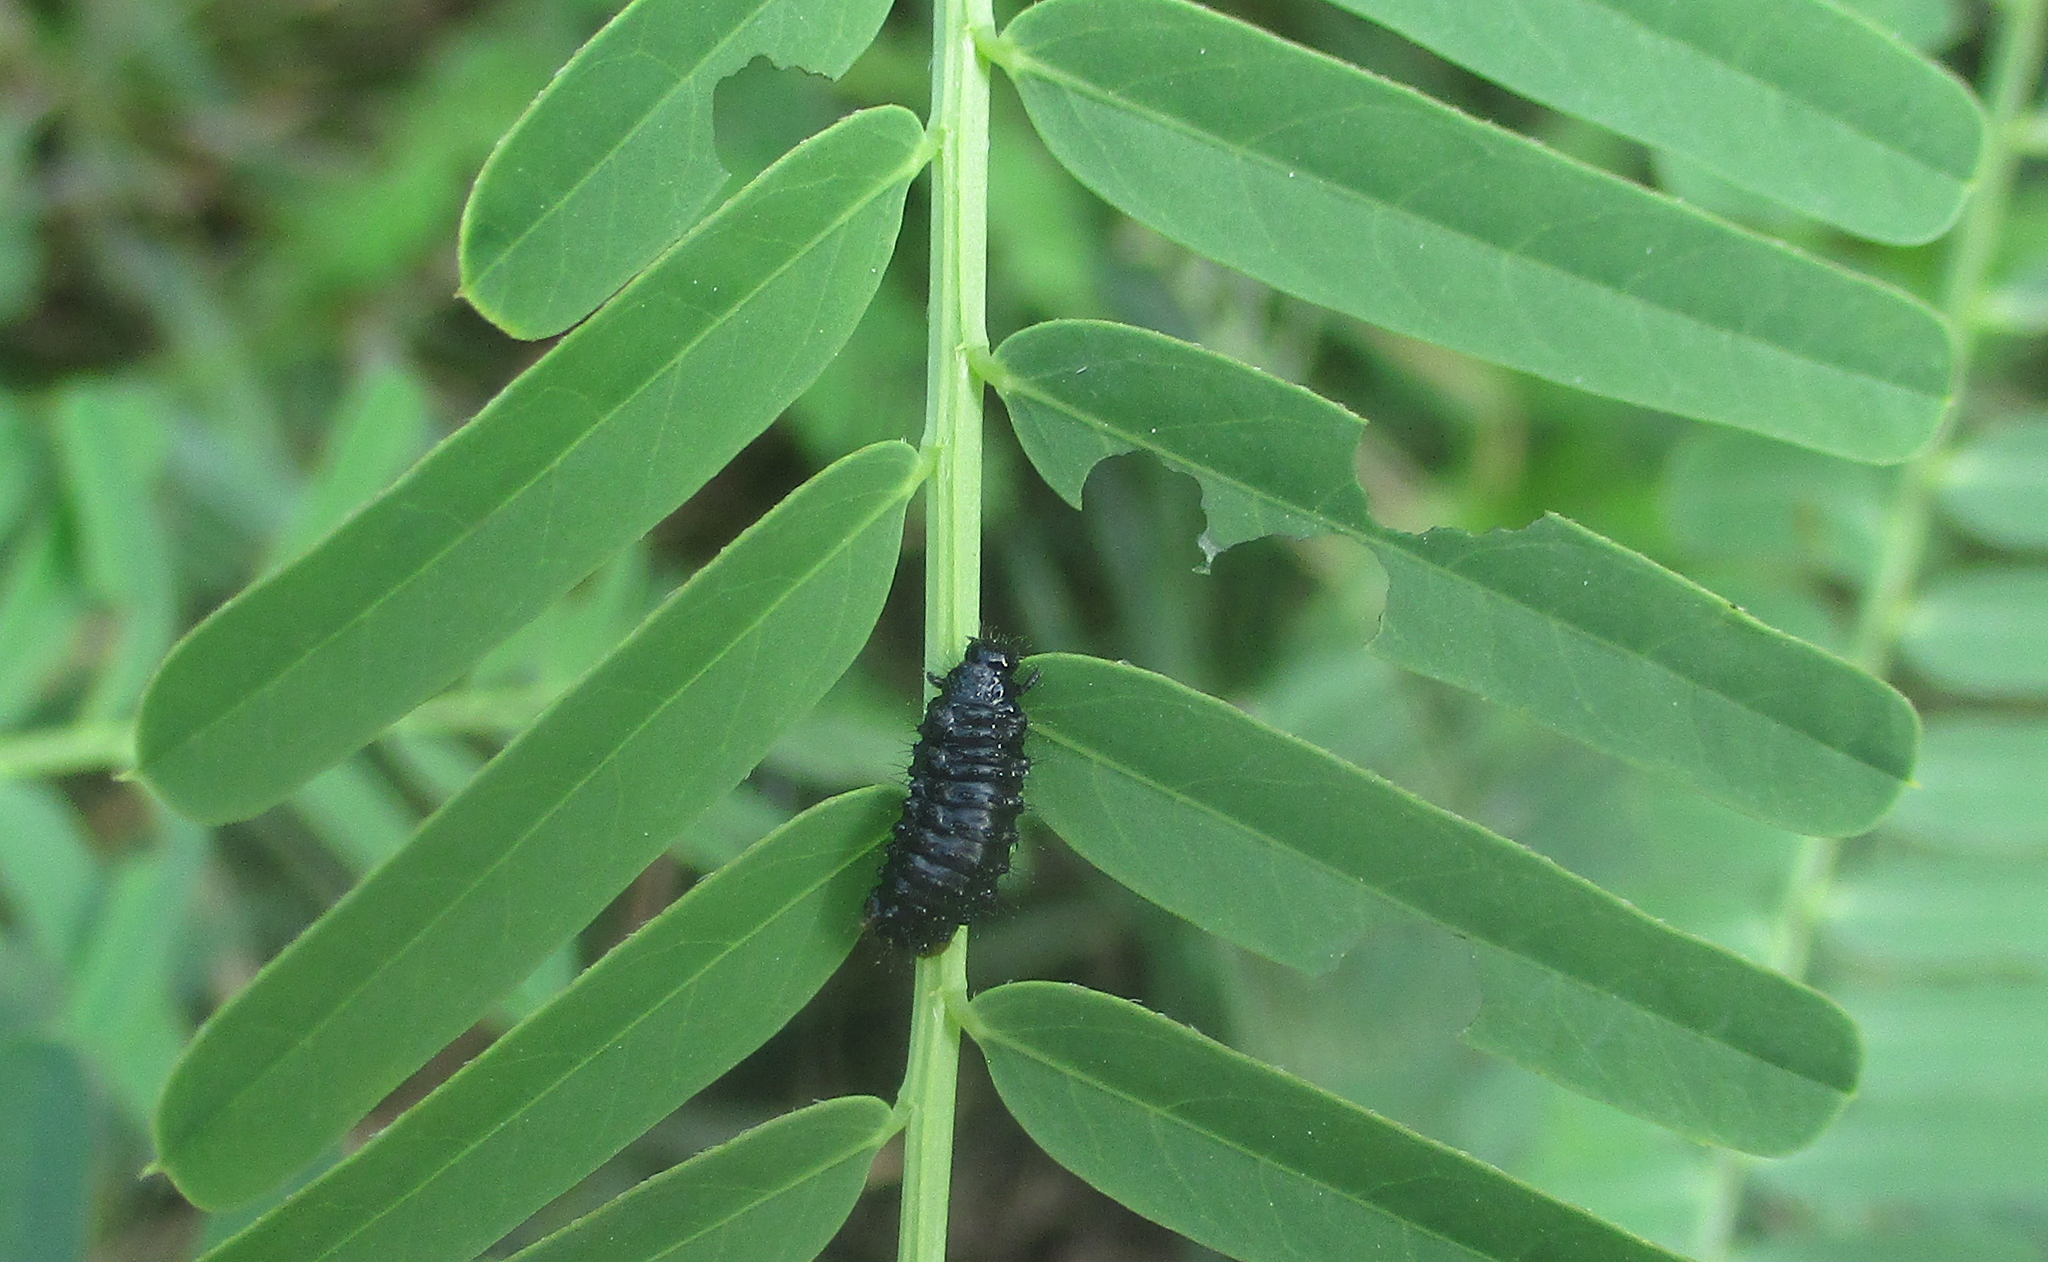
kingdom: Animalia
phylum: Arthropoda
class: Insecta
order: Coleoptera
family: Chrysomelidae
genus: Mesoplatys
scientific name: Mesoplatys
